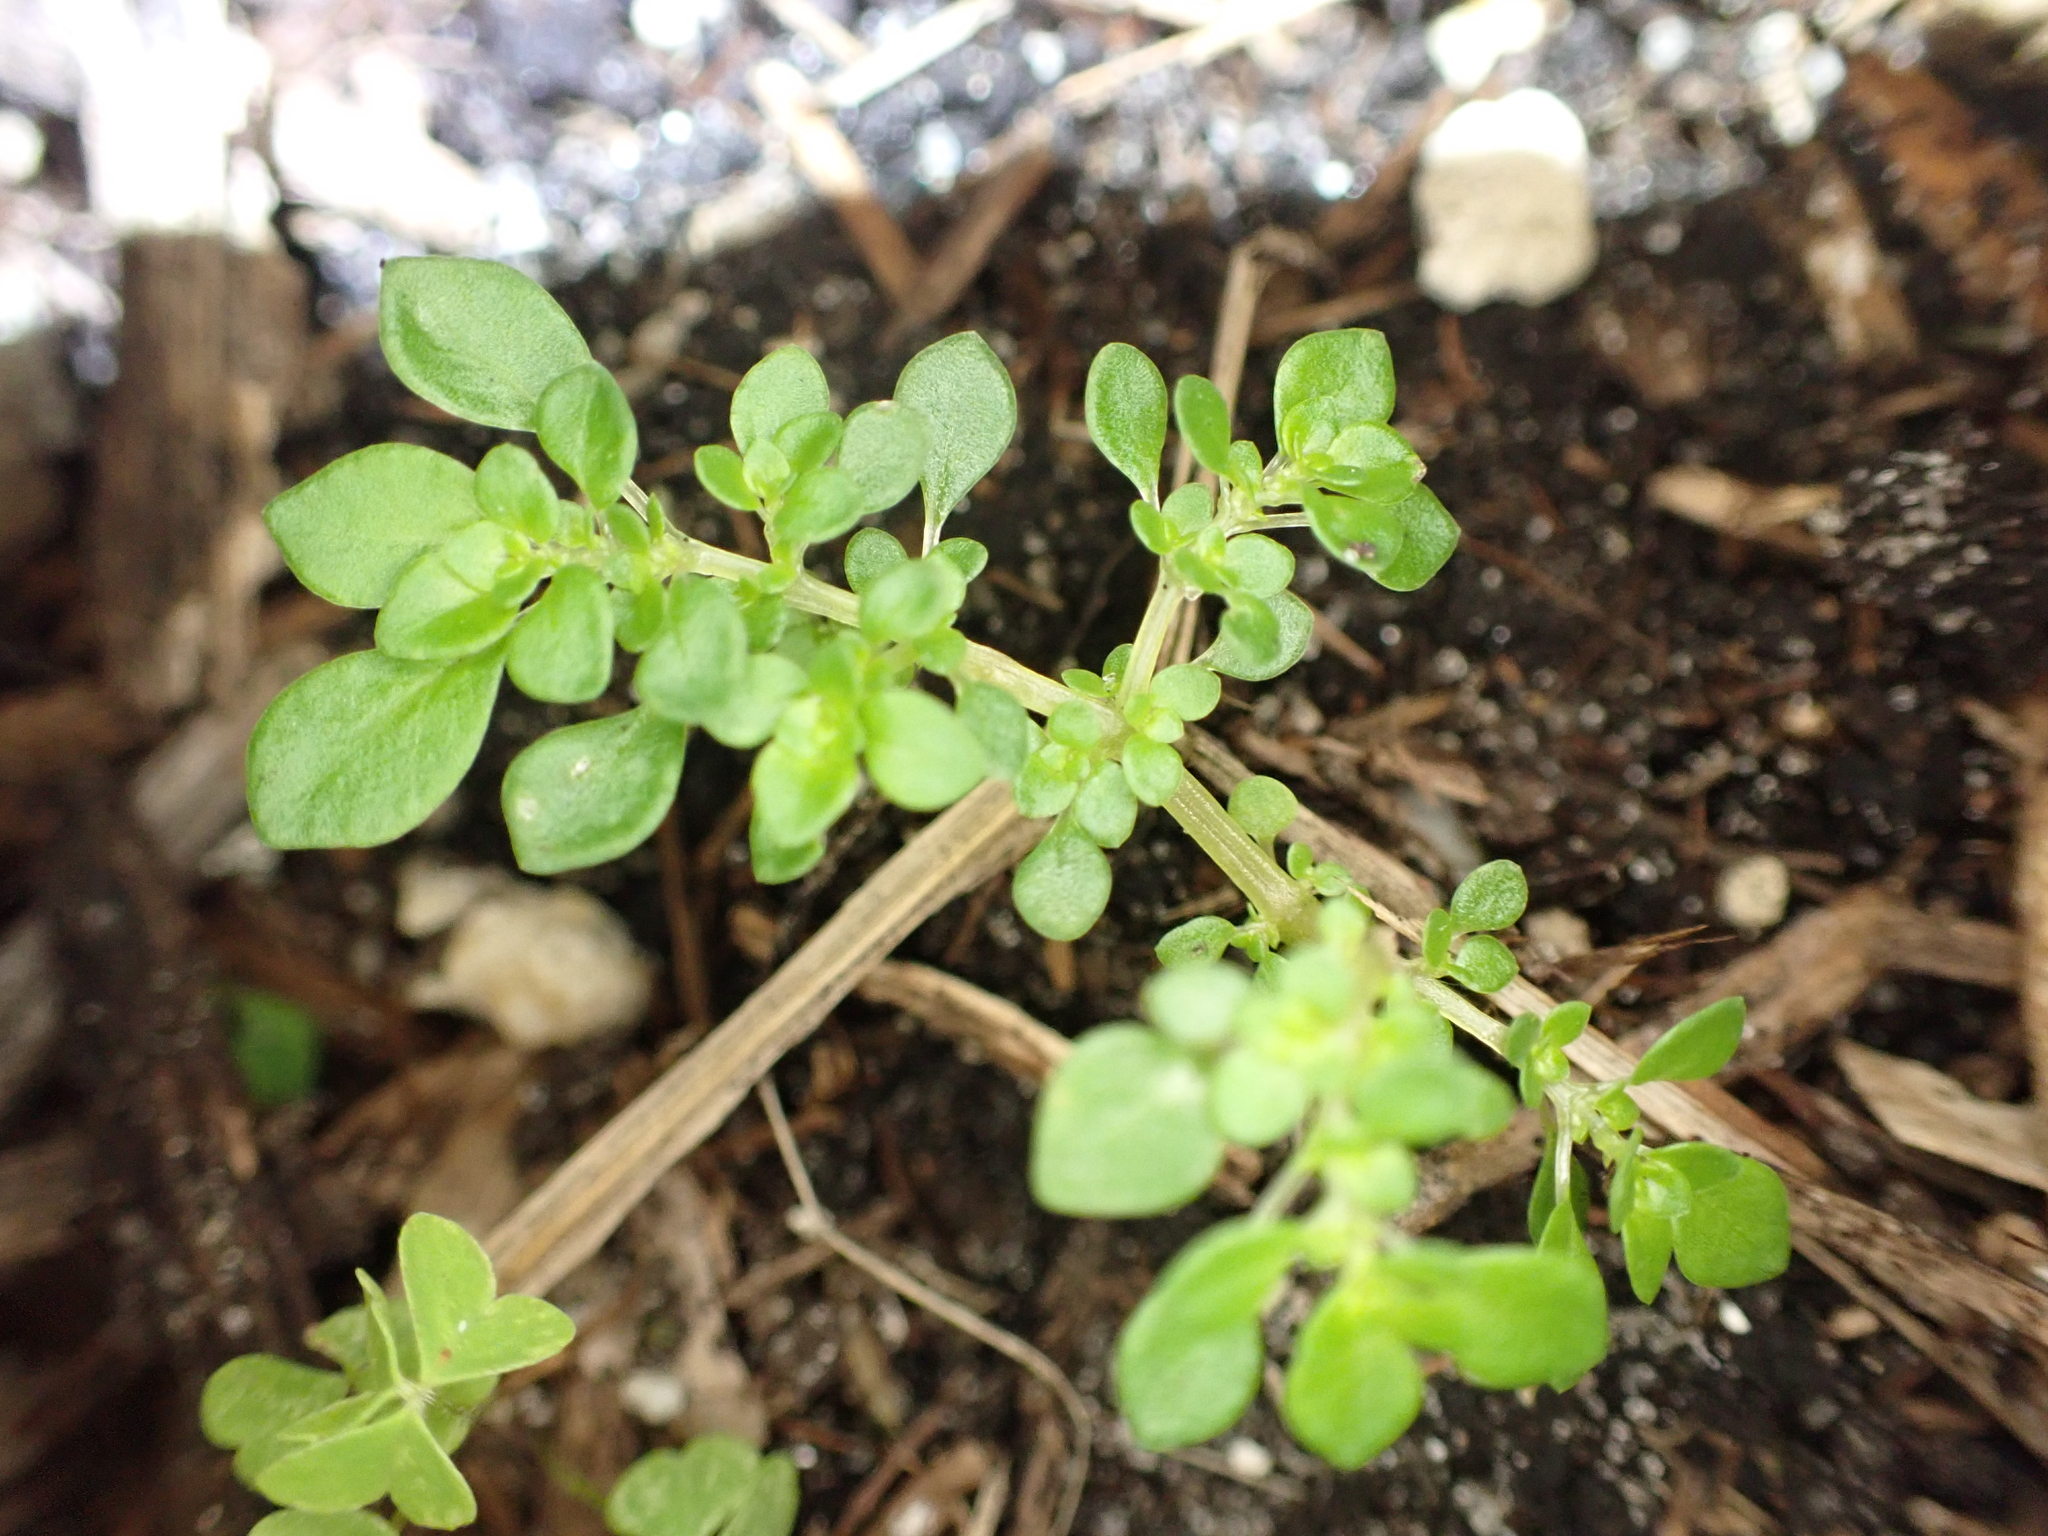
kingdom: Plantae
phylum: Tracheophyta
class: Magnoliopsida
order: Rosales
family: Urticaceae
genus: Pilea
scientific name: Pilea microphylla
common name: Artillery-plant
